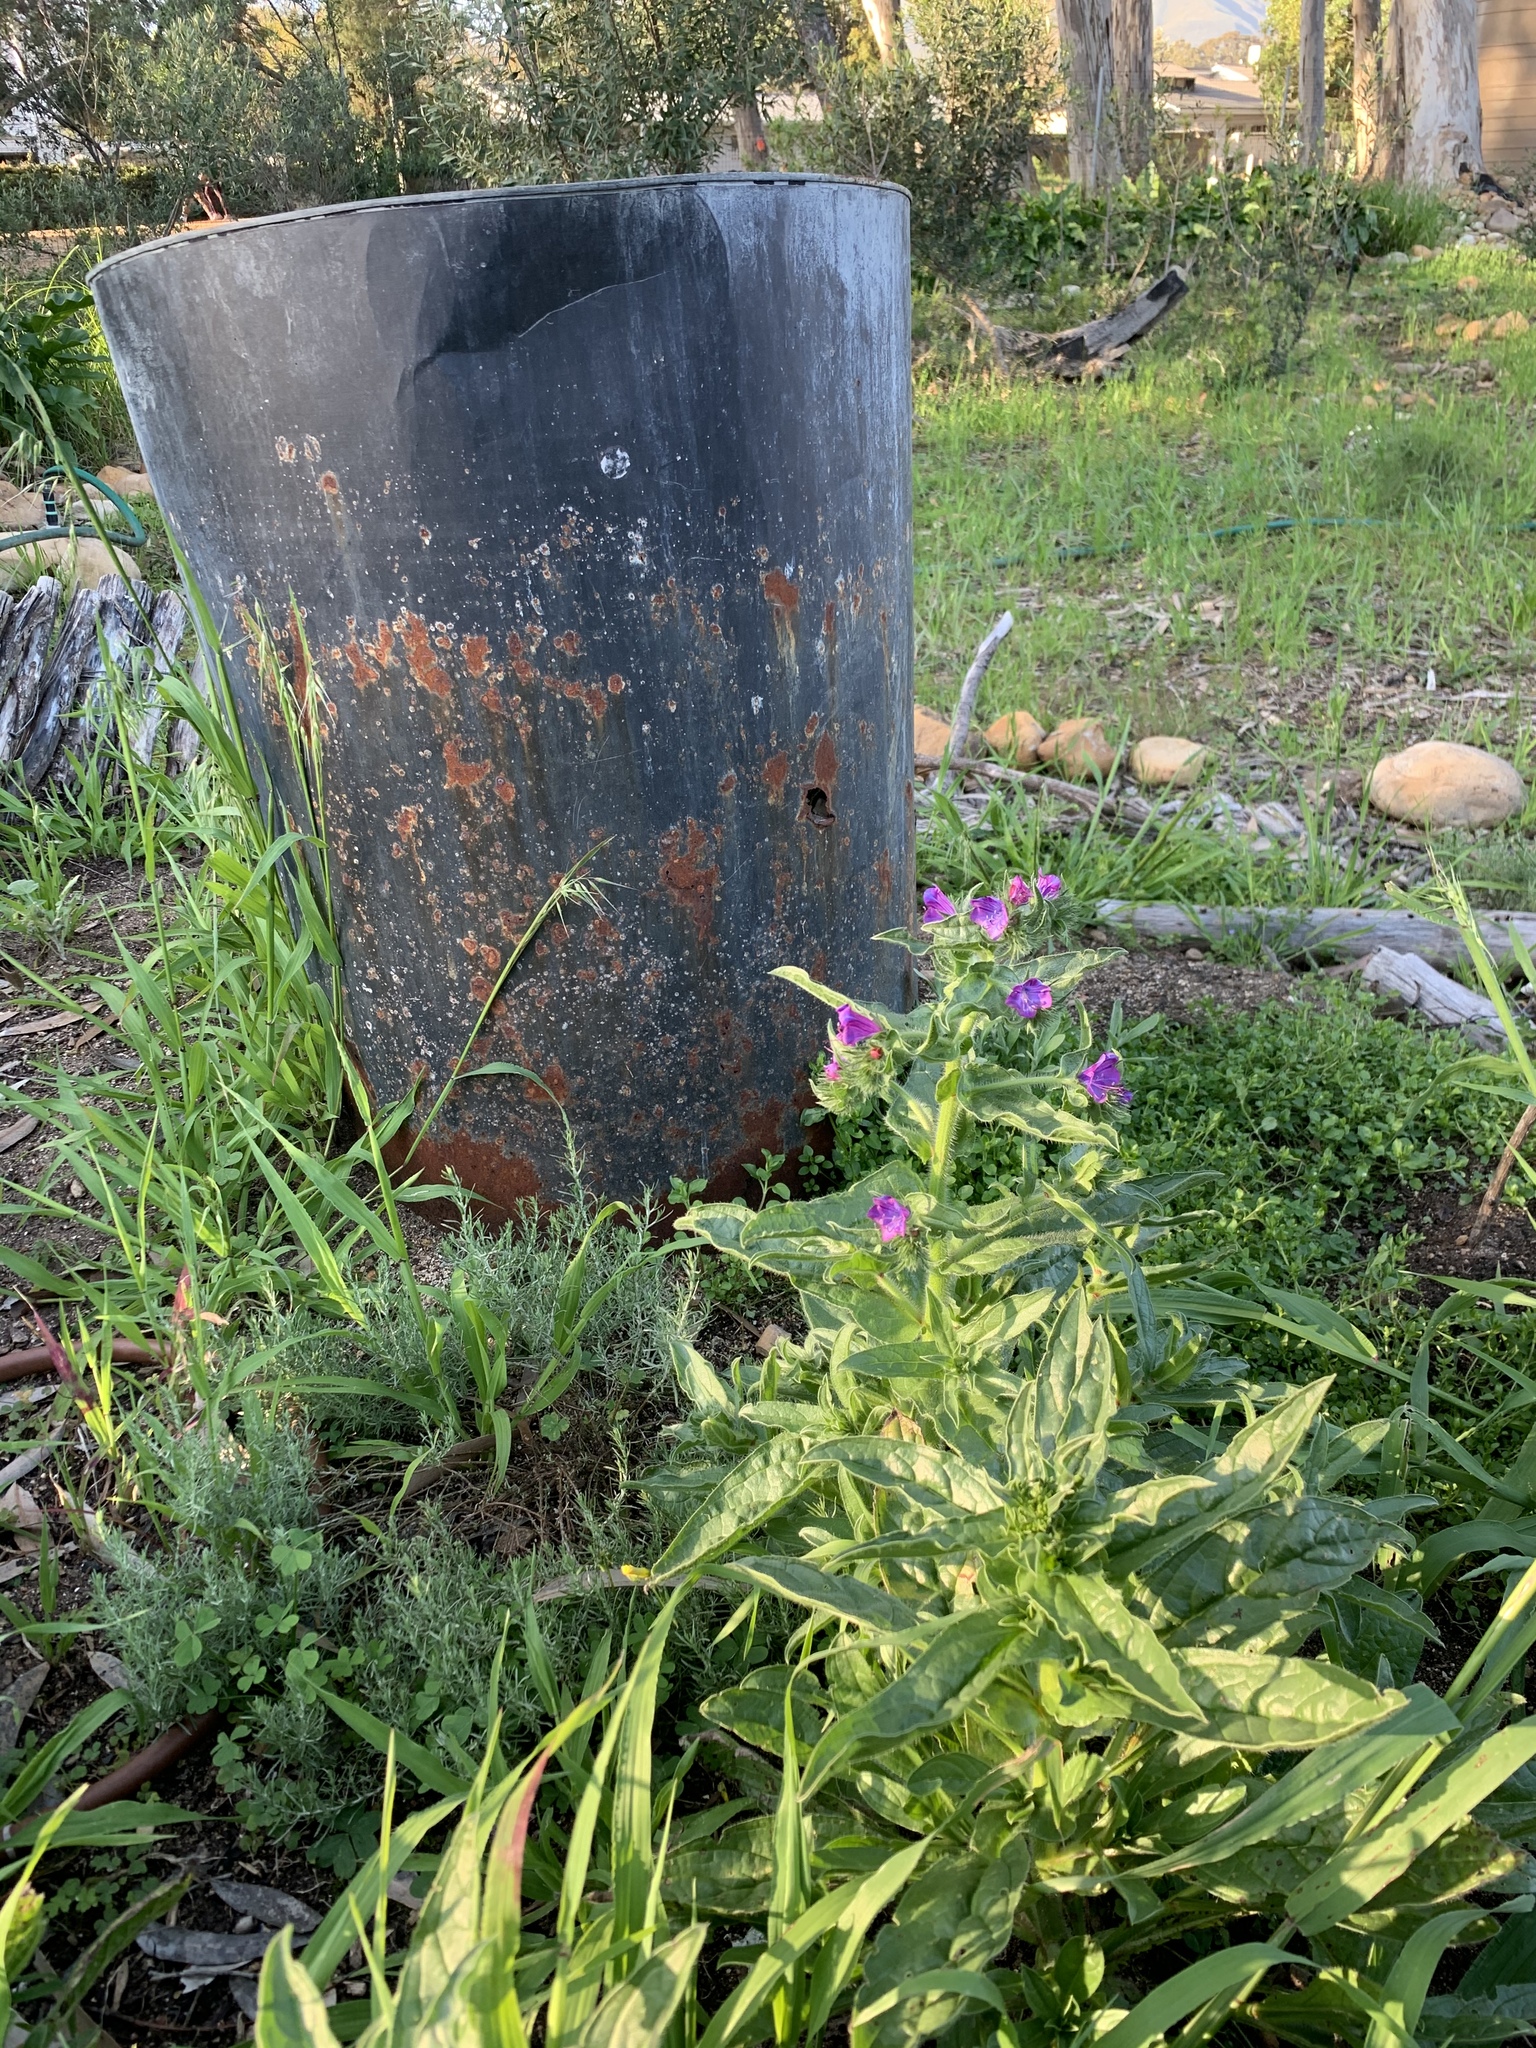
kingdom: Plantae
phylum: Tracheophyta
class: Magnoliopsida
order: Boraginales
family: Boraginaceae
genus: Echium
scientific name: Echium plantagineum
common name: Purple viper's-bugloss
